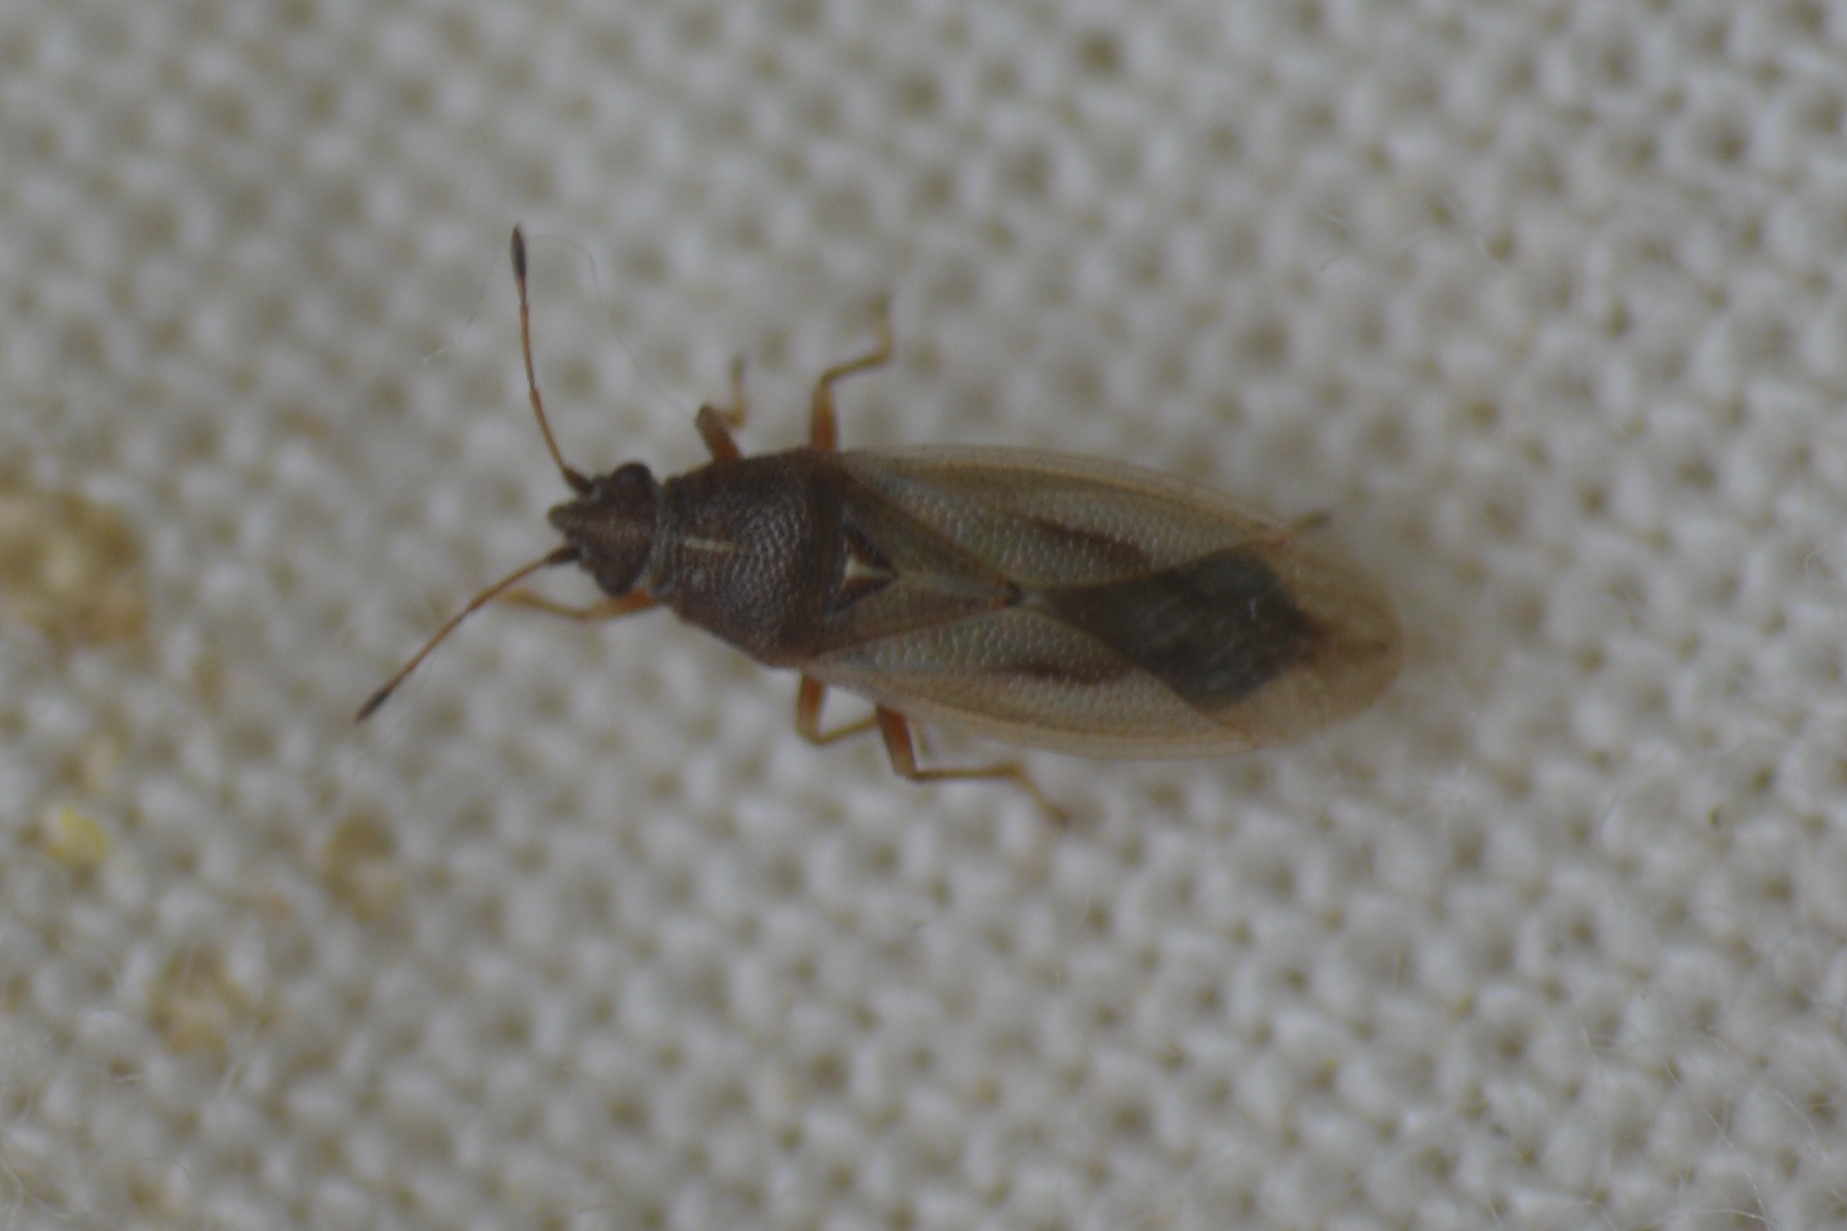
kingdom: Animalia
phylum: Arthropoda
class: Insecta
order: Hemiptera
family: Cymidae
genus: Cymus
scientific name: Cymus glandicolor
